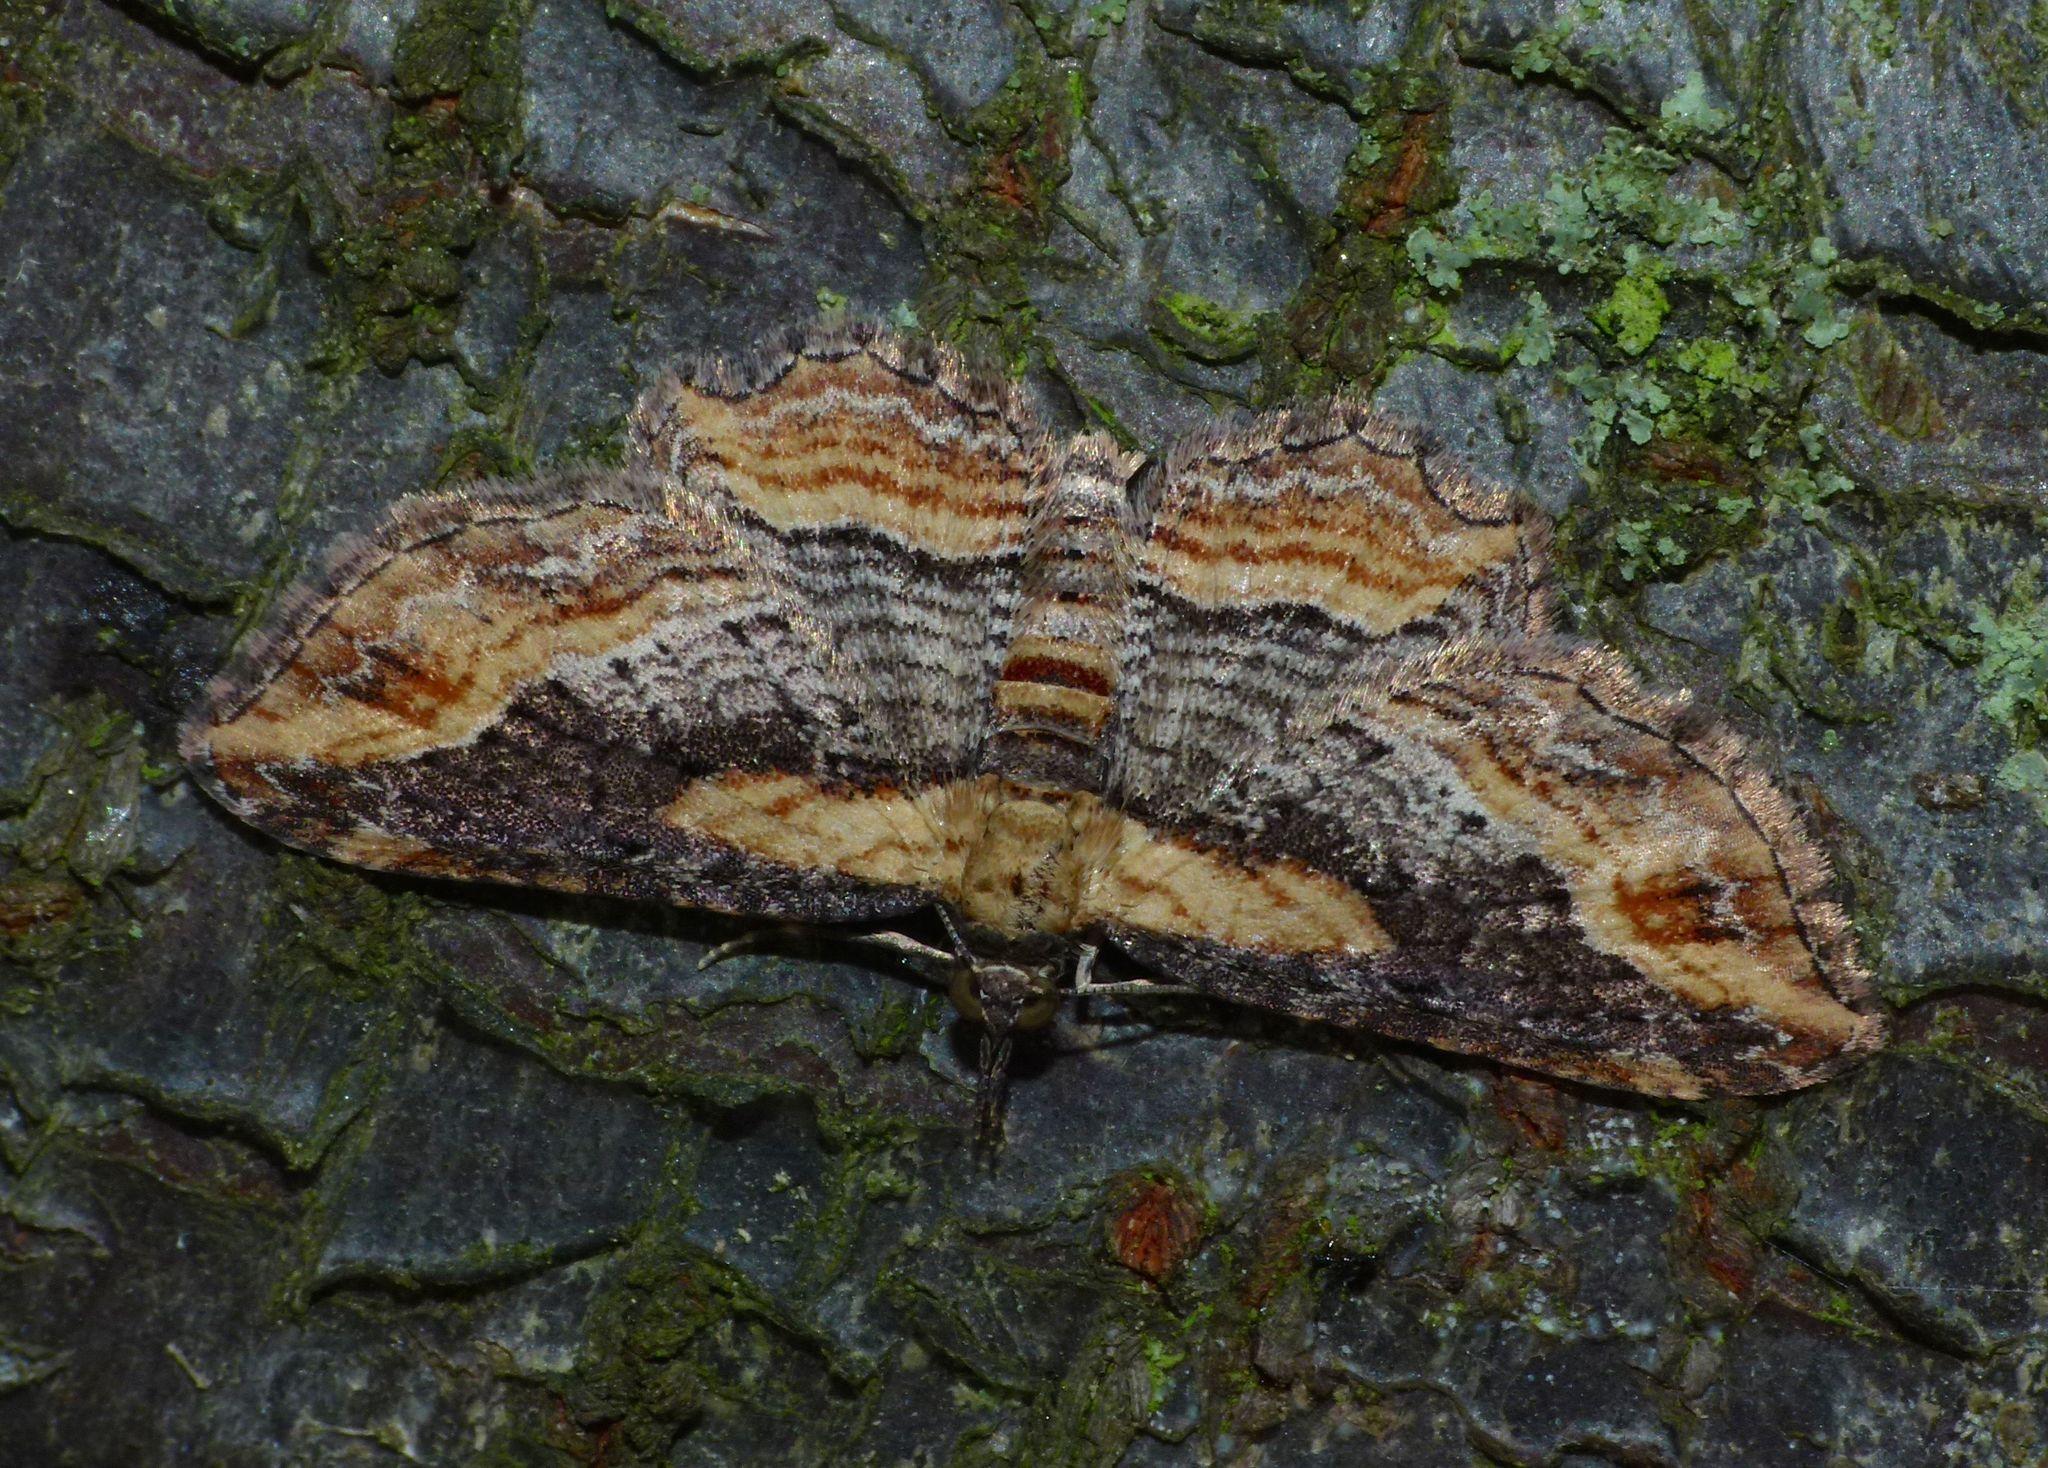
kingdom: Animalia
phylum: Arthropoda
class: Insecta
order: Lepidoptera
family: Geometridae
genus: Chloroclystis
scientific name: Chloroclystis filata
